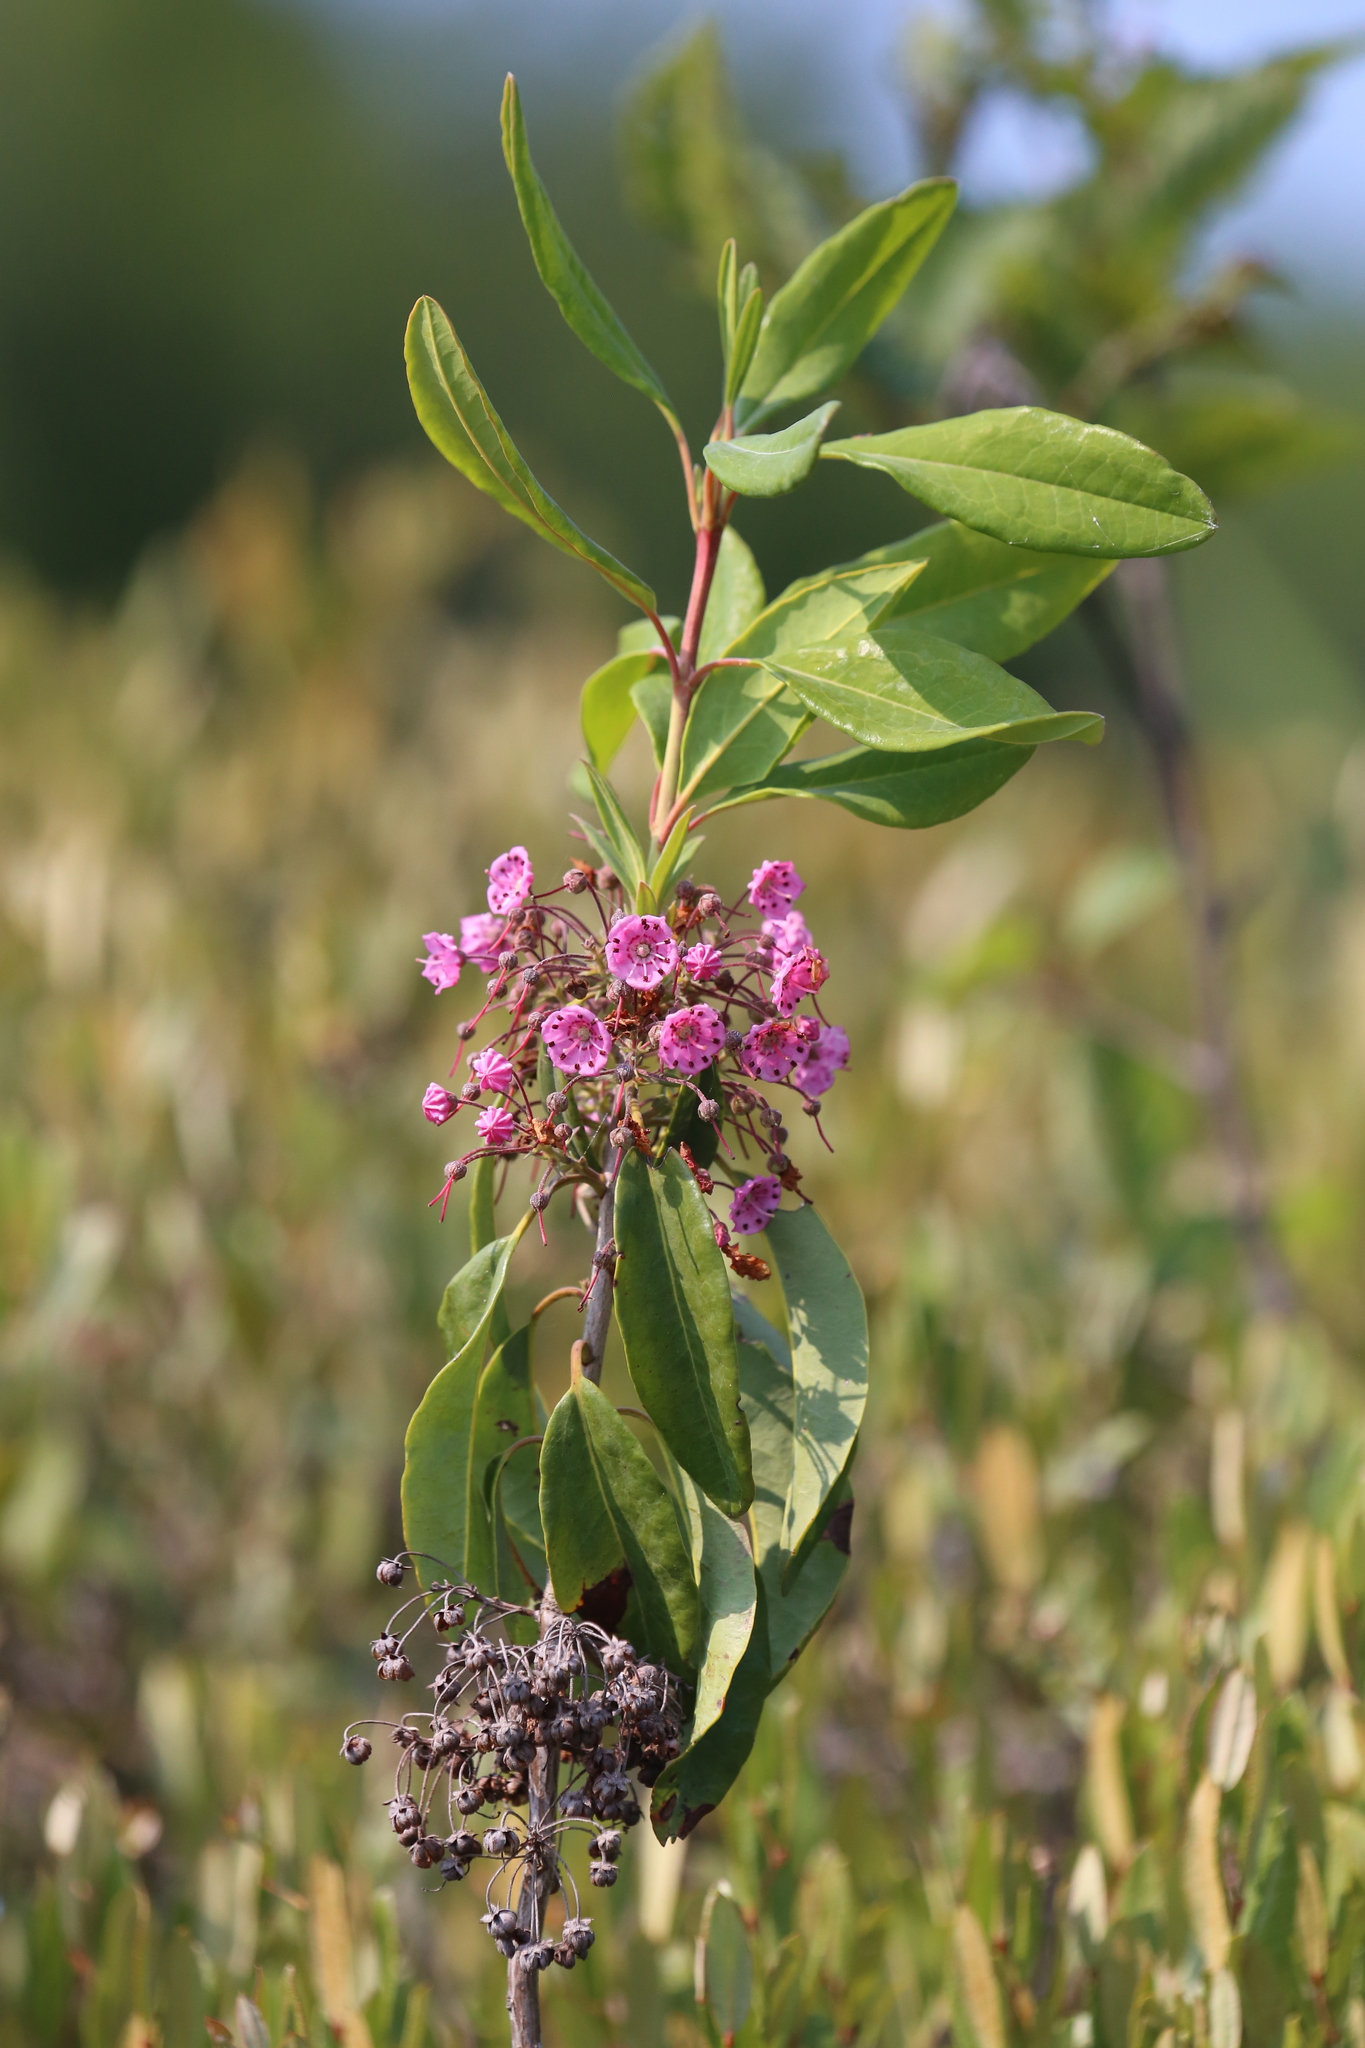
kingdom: Plantae
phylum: Tracheophyta
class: Magnoliopsida
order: Ericales
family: Ericaceae
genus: Kalmia
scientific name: Kalmia angustifolia
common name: Sheep-laurel
